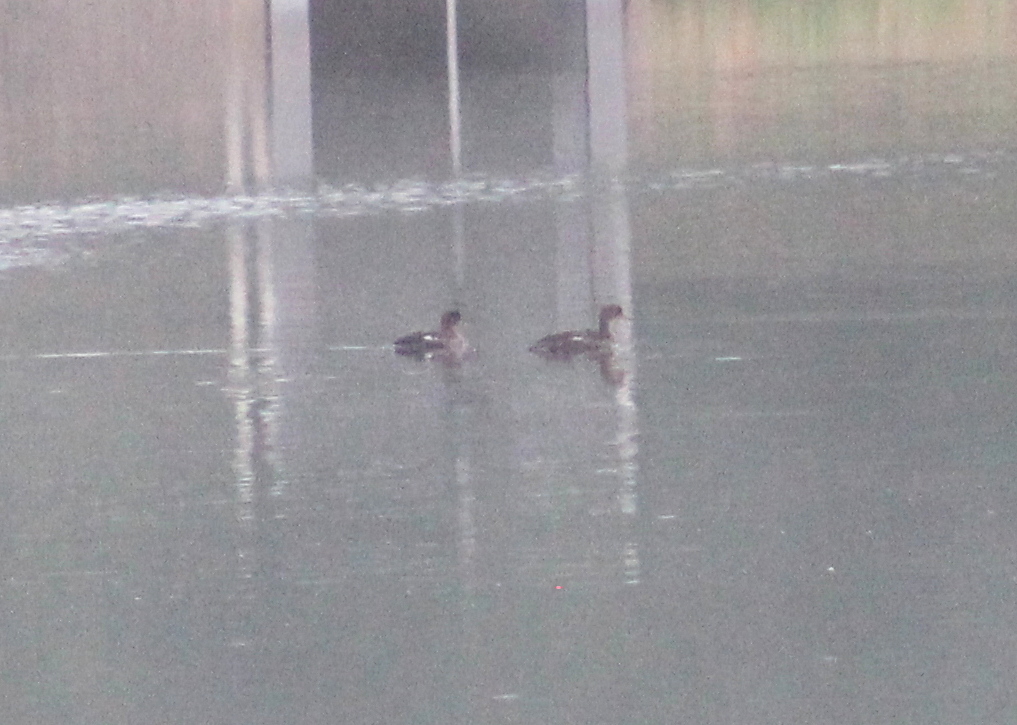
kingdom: Animalia
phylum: Chordata
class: Aves
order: Anseriformes
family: Anatidae
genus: Lophodytes
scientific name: Lophodytes cucullatus
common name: Hooded merganser
